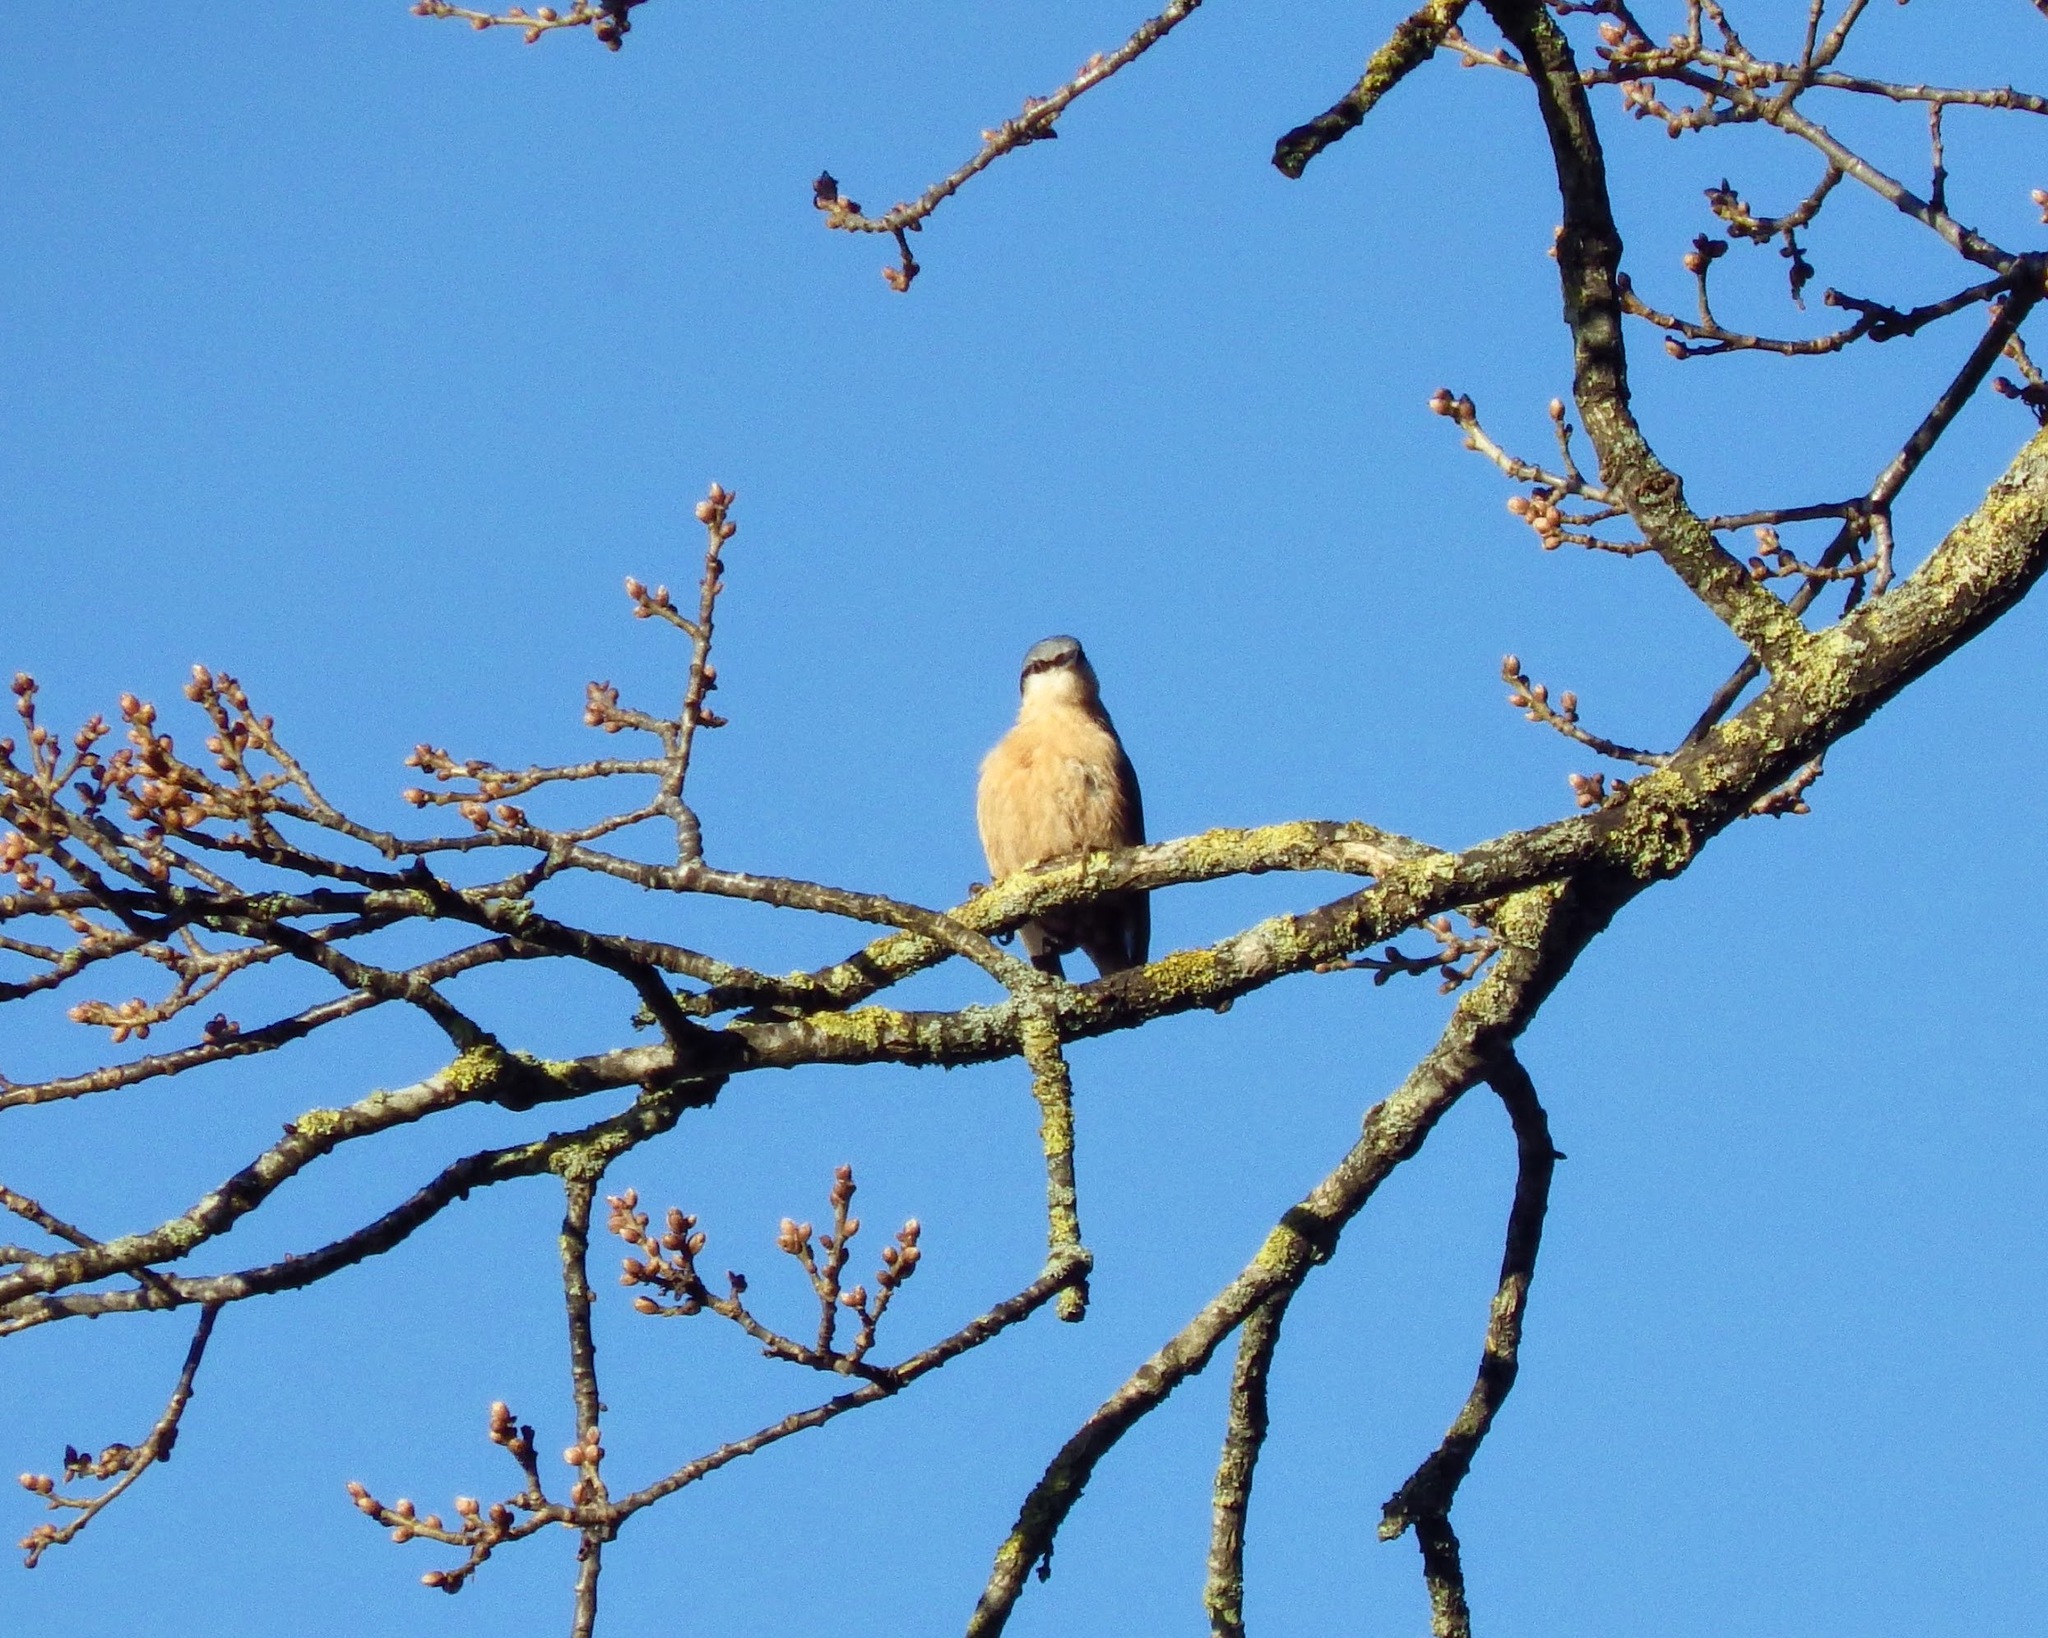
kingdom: Animalia
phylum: Chordata
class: Aves
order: Passeriformes
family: Sittidae
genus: Sitta
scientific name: Sitta europaea
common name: Eurasian nuthatch
